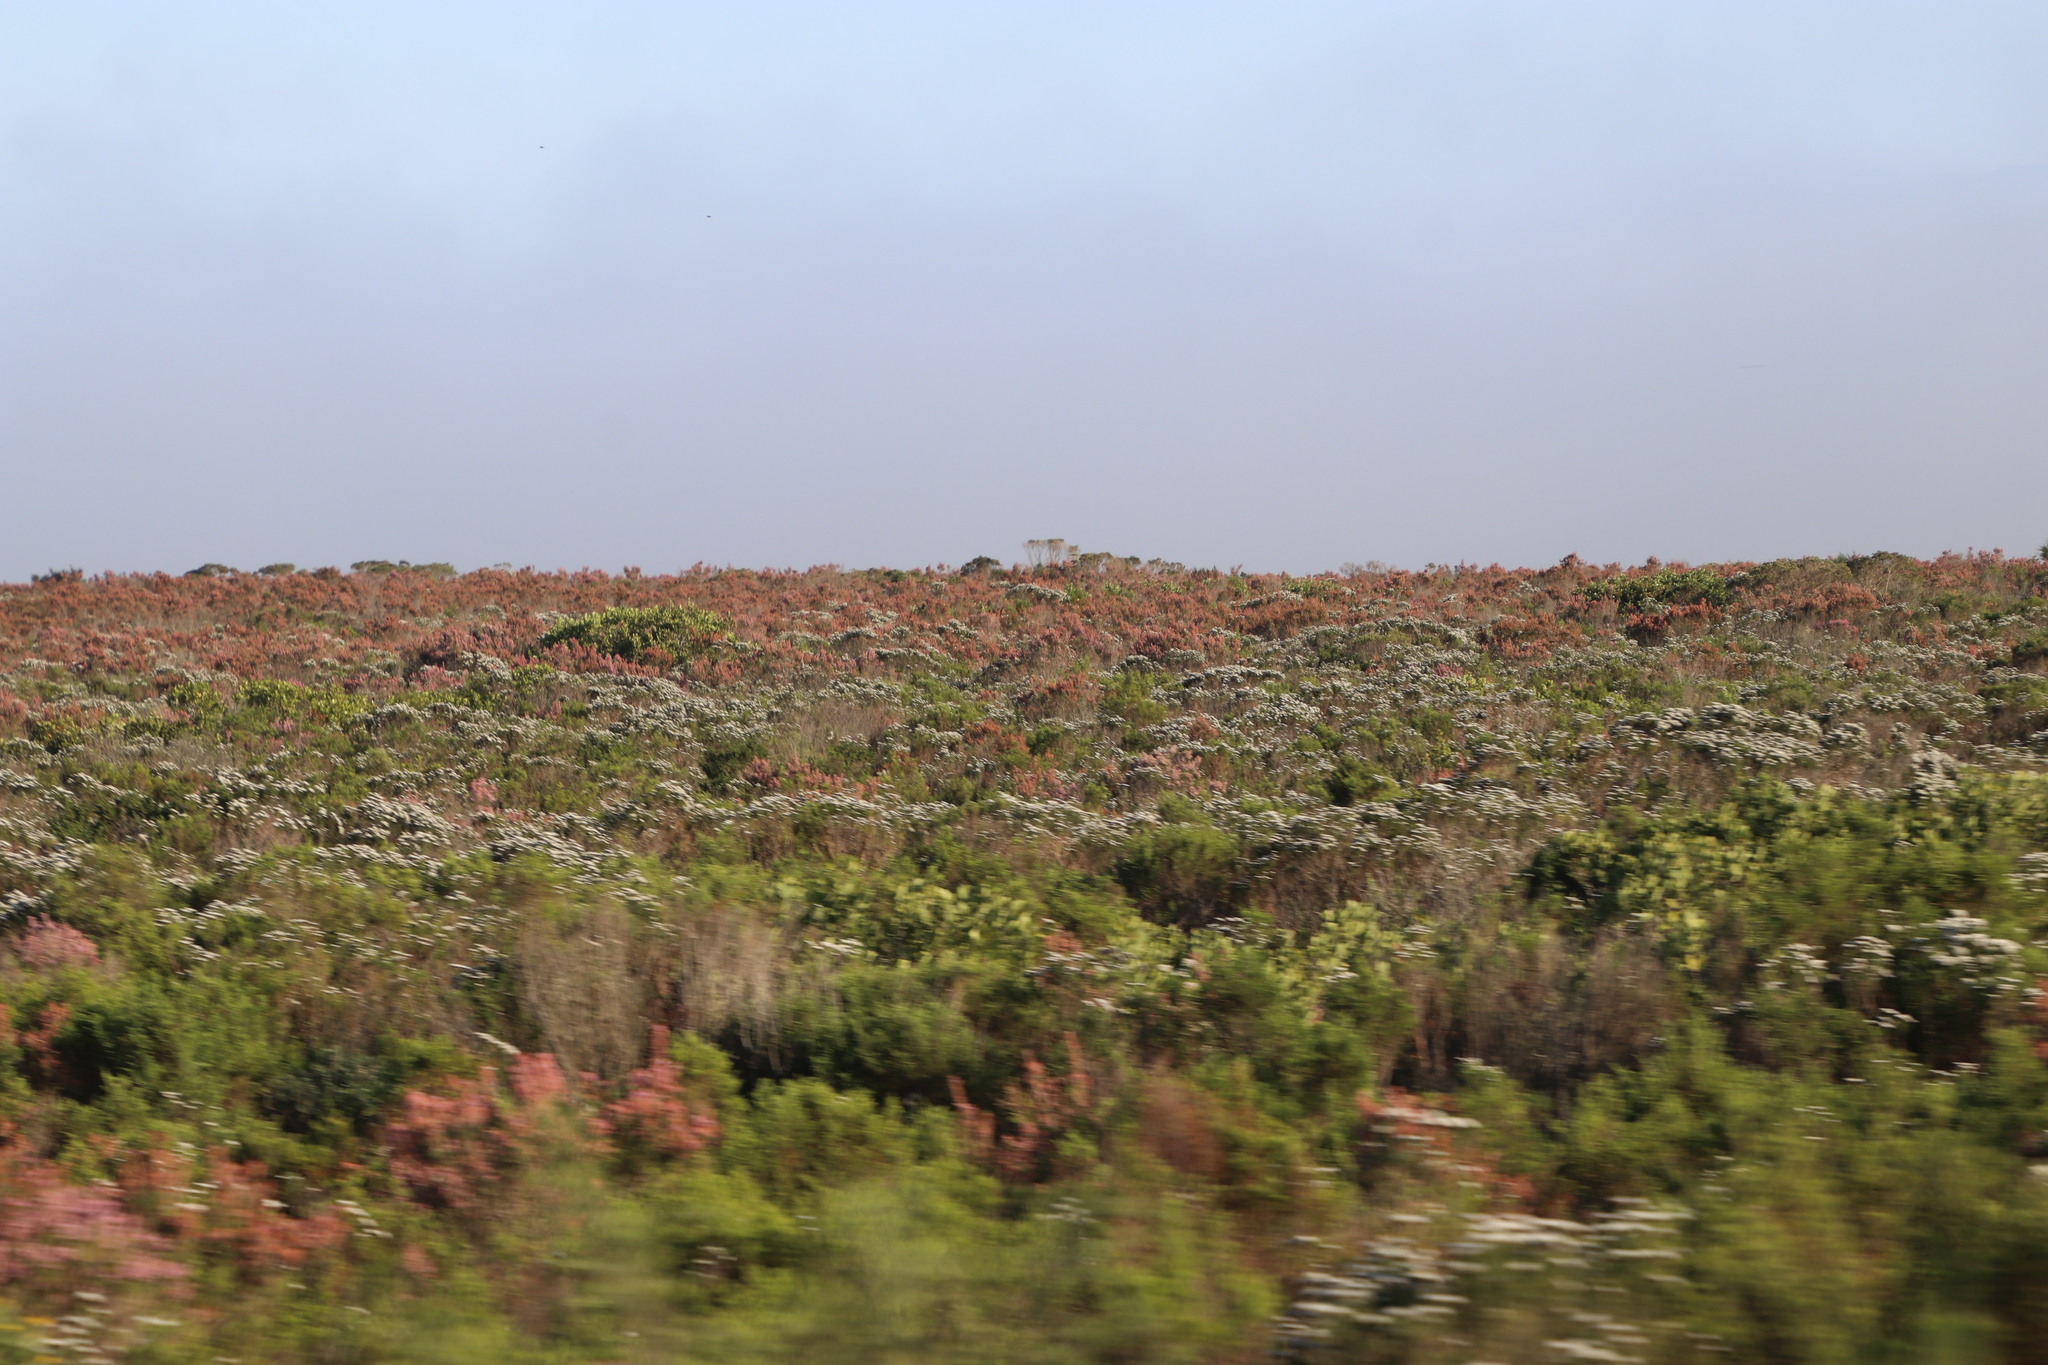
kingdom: Plantae
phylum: Tracheophyta
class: Magnoliopsida
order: Ericales
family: Ericaceae
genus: Erica
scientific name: Erica irregularis
